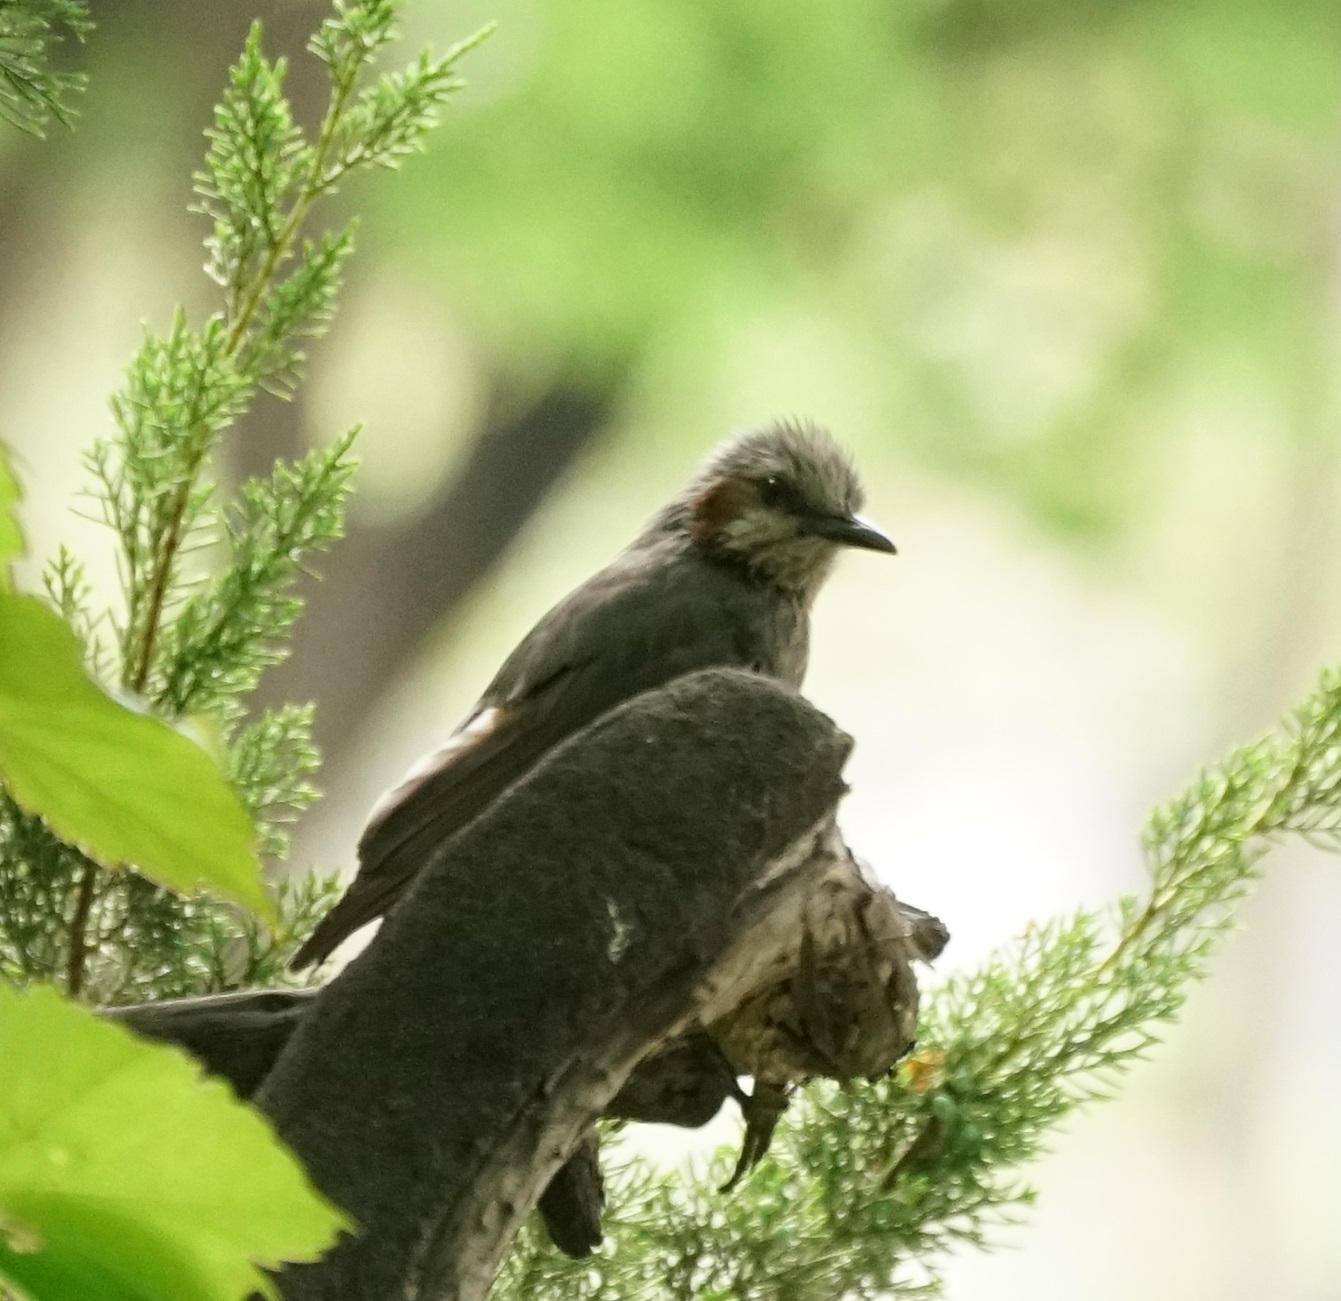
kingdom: Animalia
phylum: Chordata
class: Aves
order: Passeriformes
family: Pycnonotidae
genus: Hypsipetes
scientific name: Hypsipetes amaurotis
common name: Brown-eared bulbul
